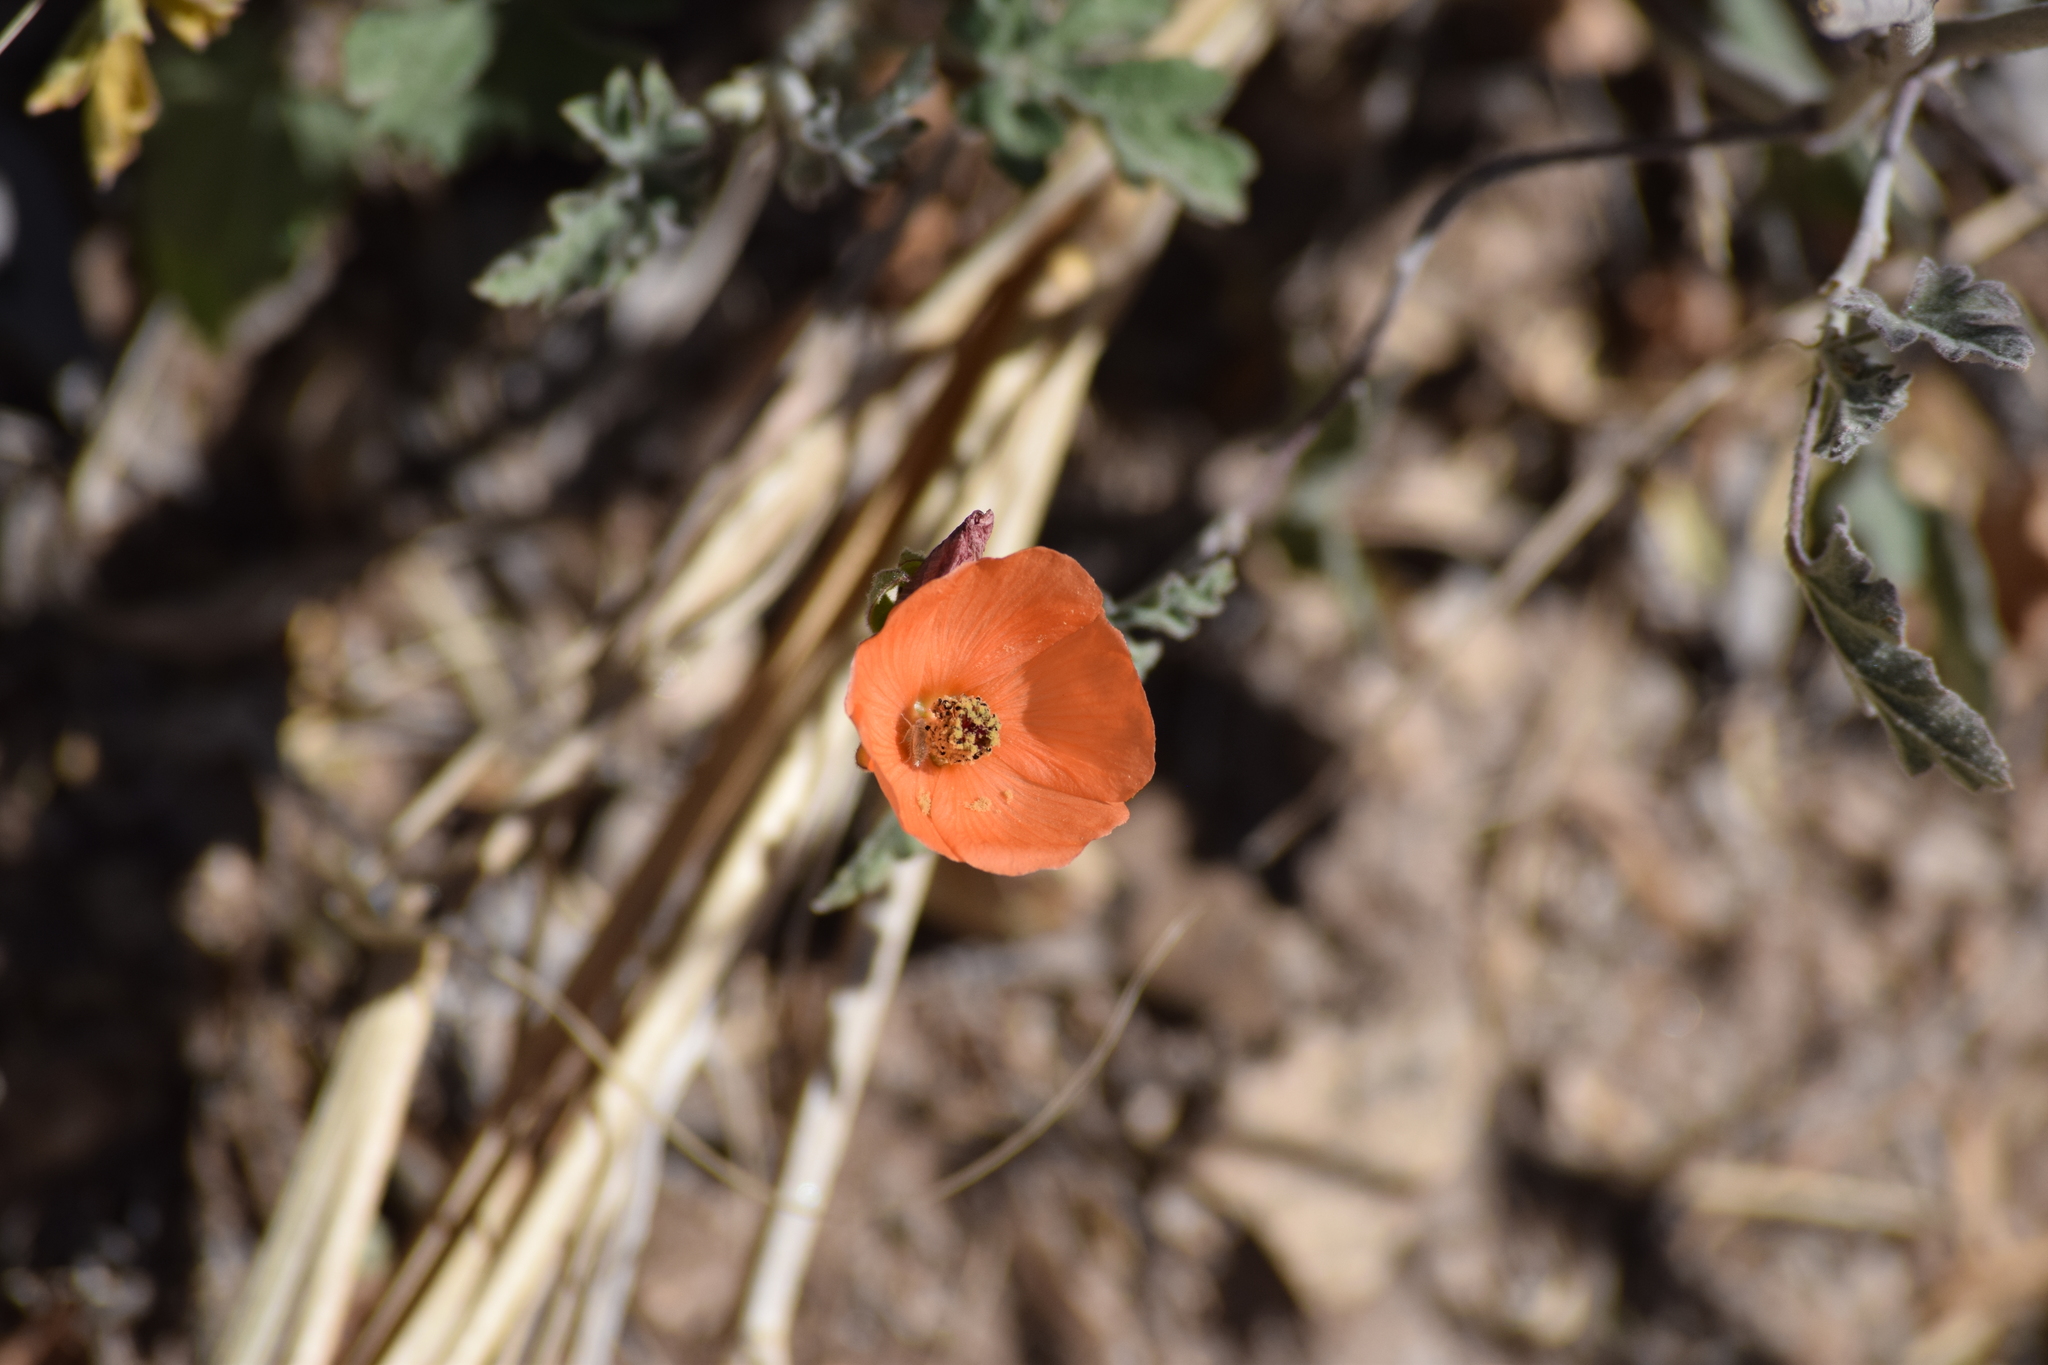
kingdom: Plantae
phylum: Tracheophyta
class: Magnoliopsida
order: Malvales
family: Malvaceae
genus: Sphaeralcea
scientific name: Sphaeralcea ambigua
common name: Apricot globe-mallow
